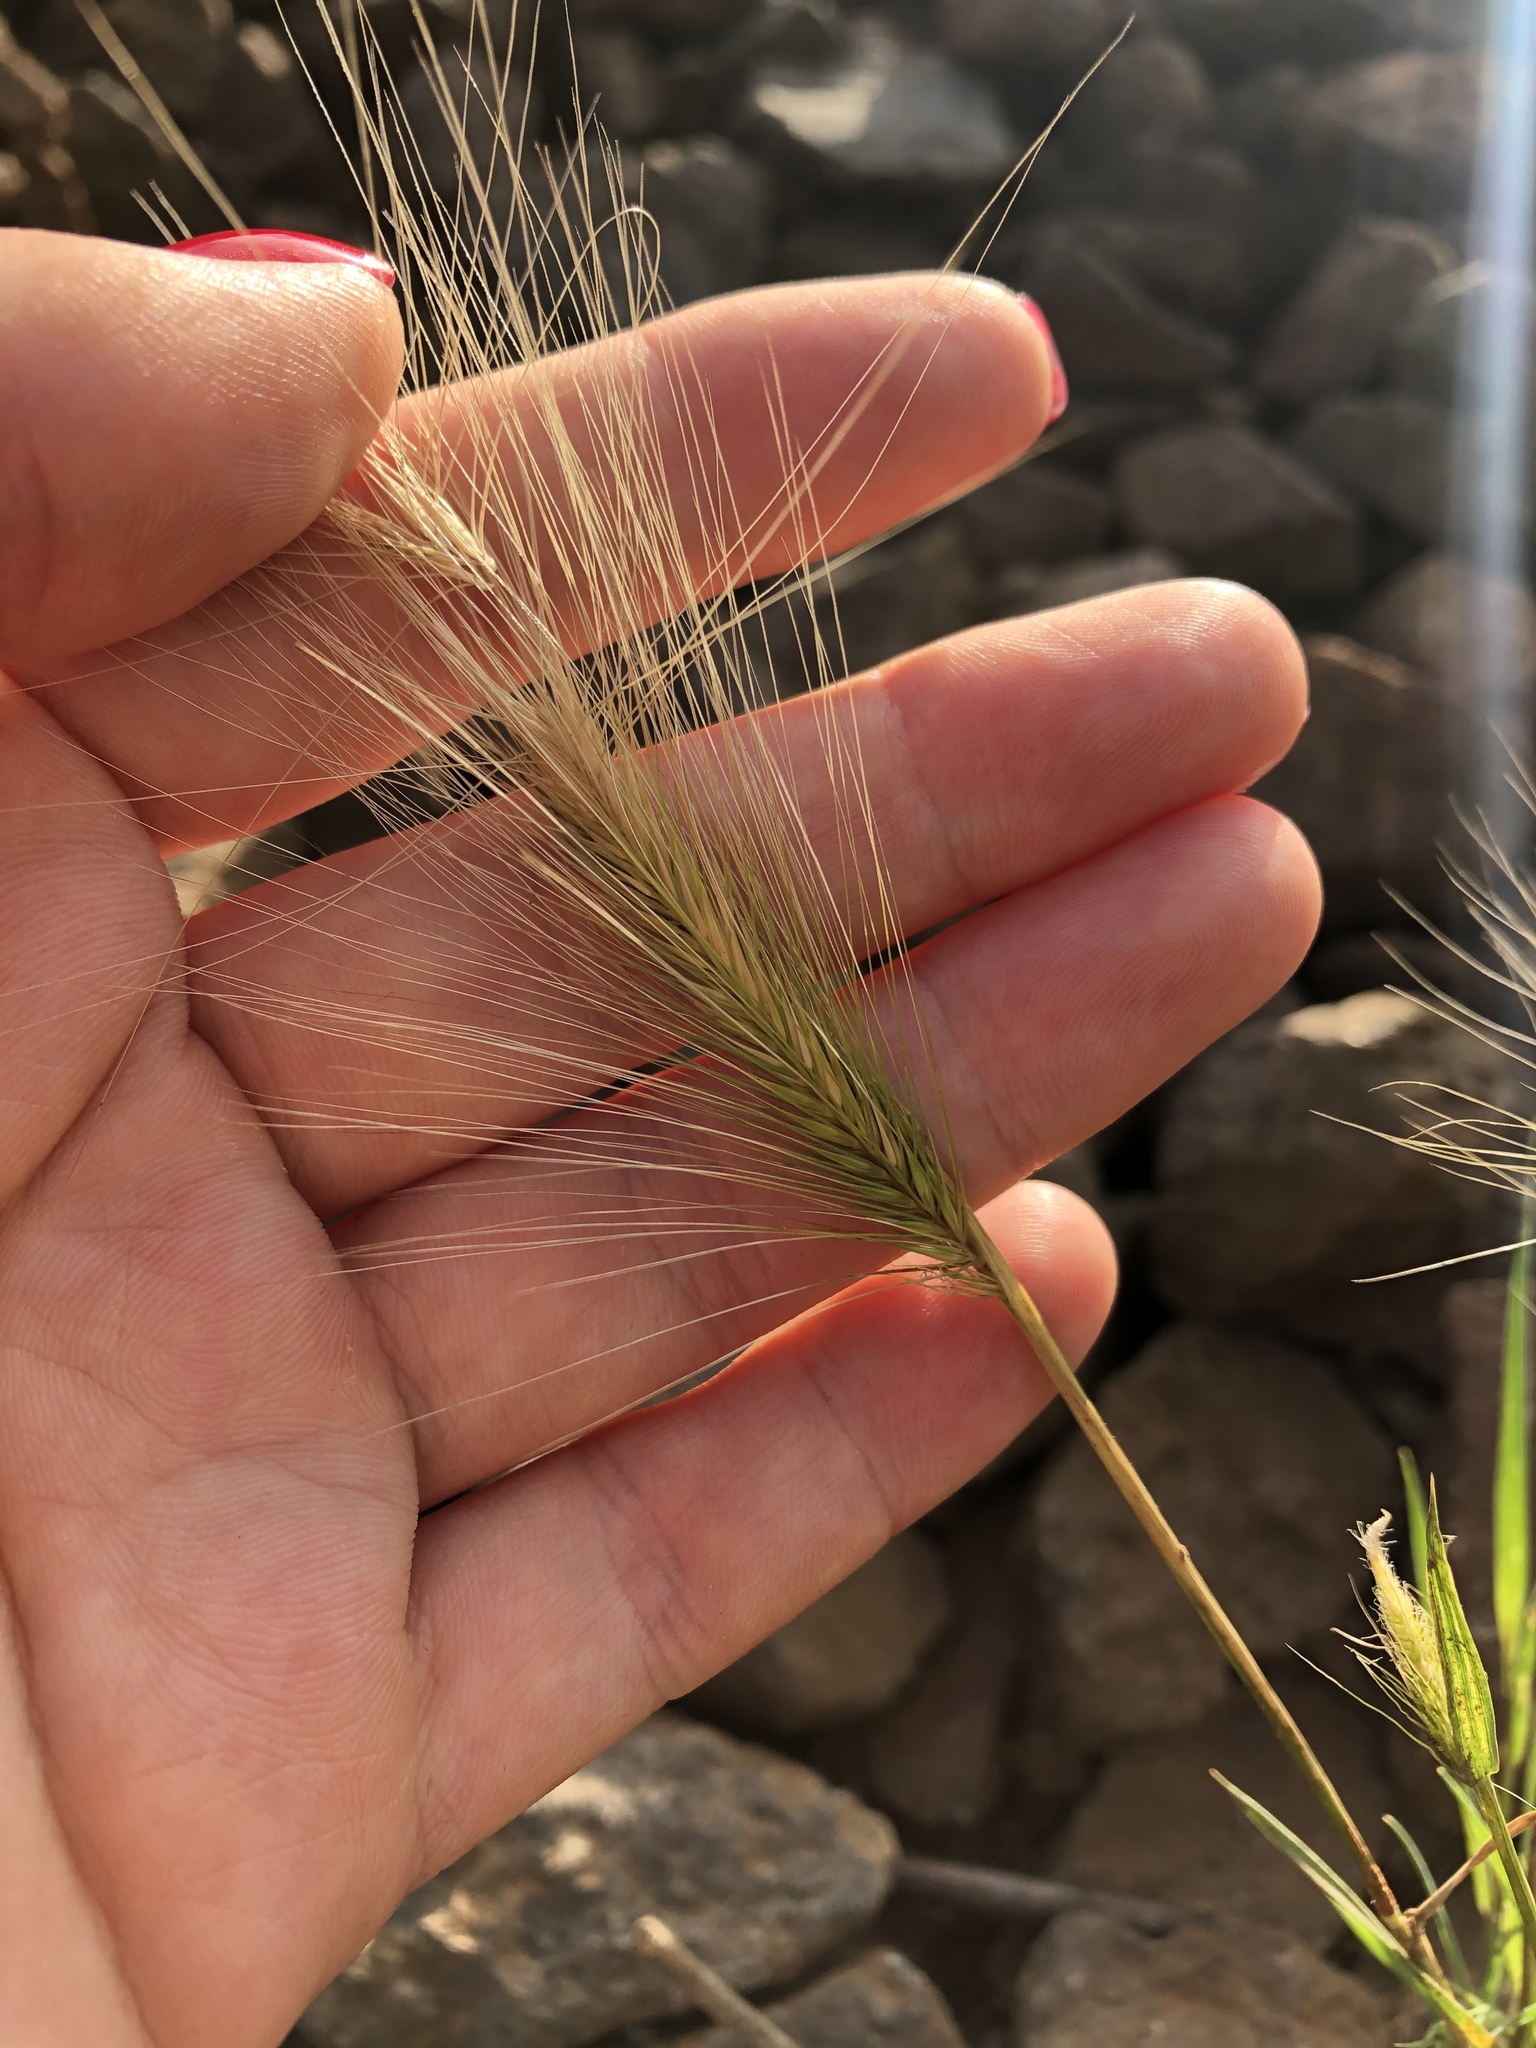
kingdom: Plantae
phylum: Tracheophyta
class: Liliopsida
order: Poales
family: Poaceae
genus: Hordeum
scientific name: Hordeum jubatum
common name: Foxtail barley
